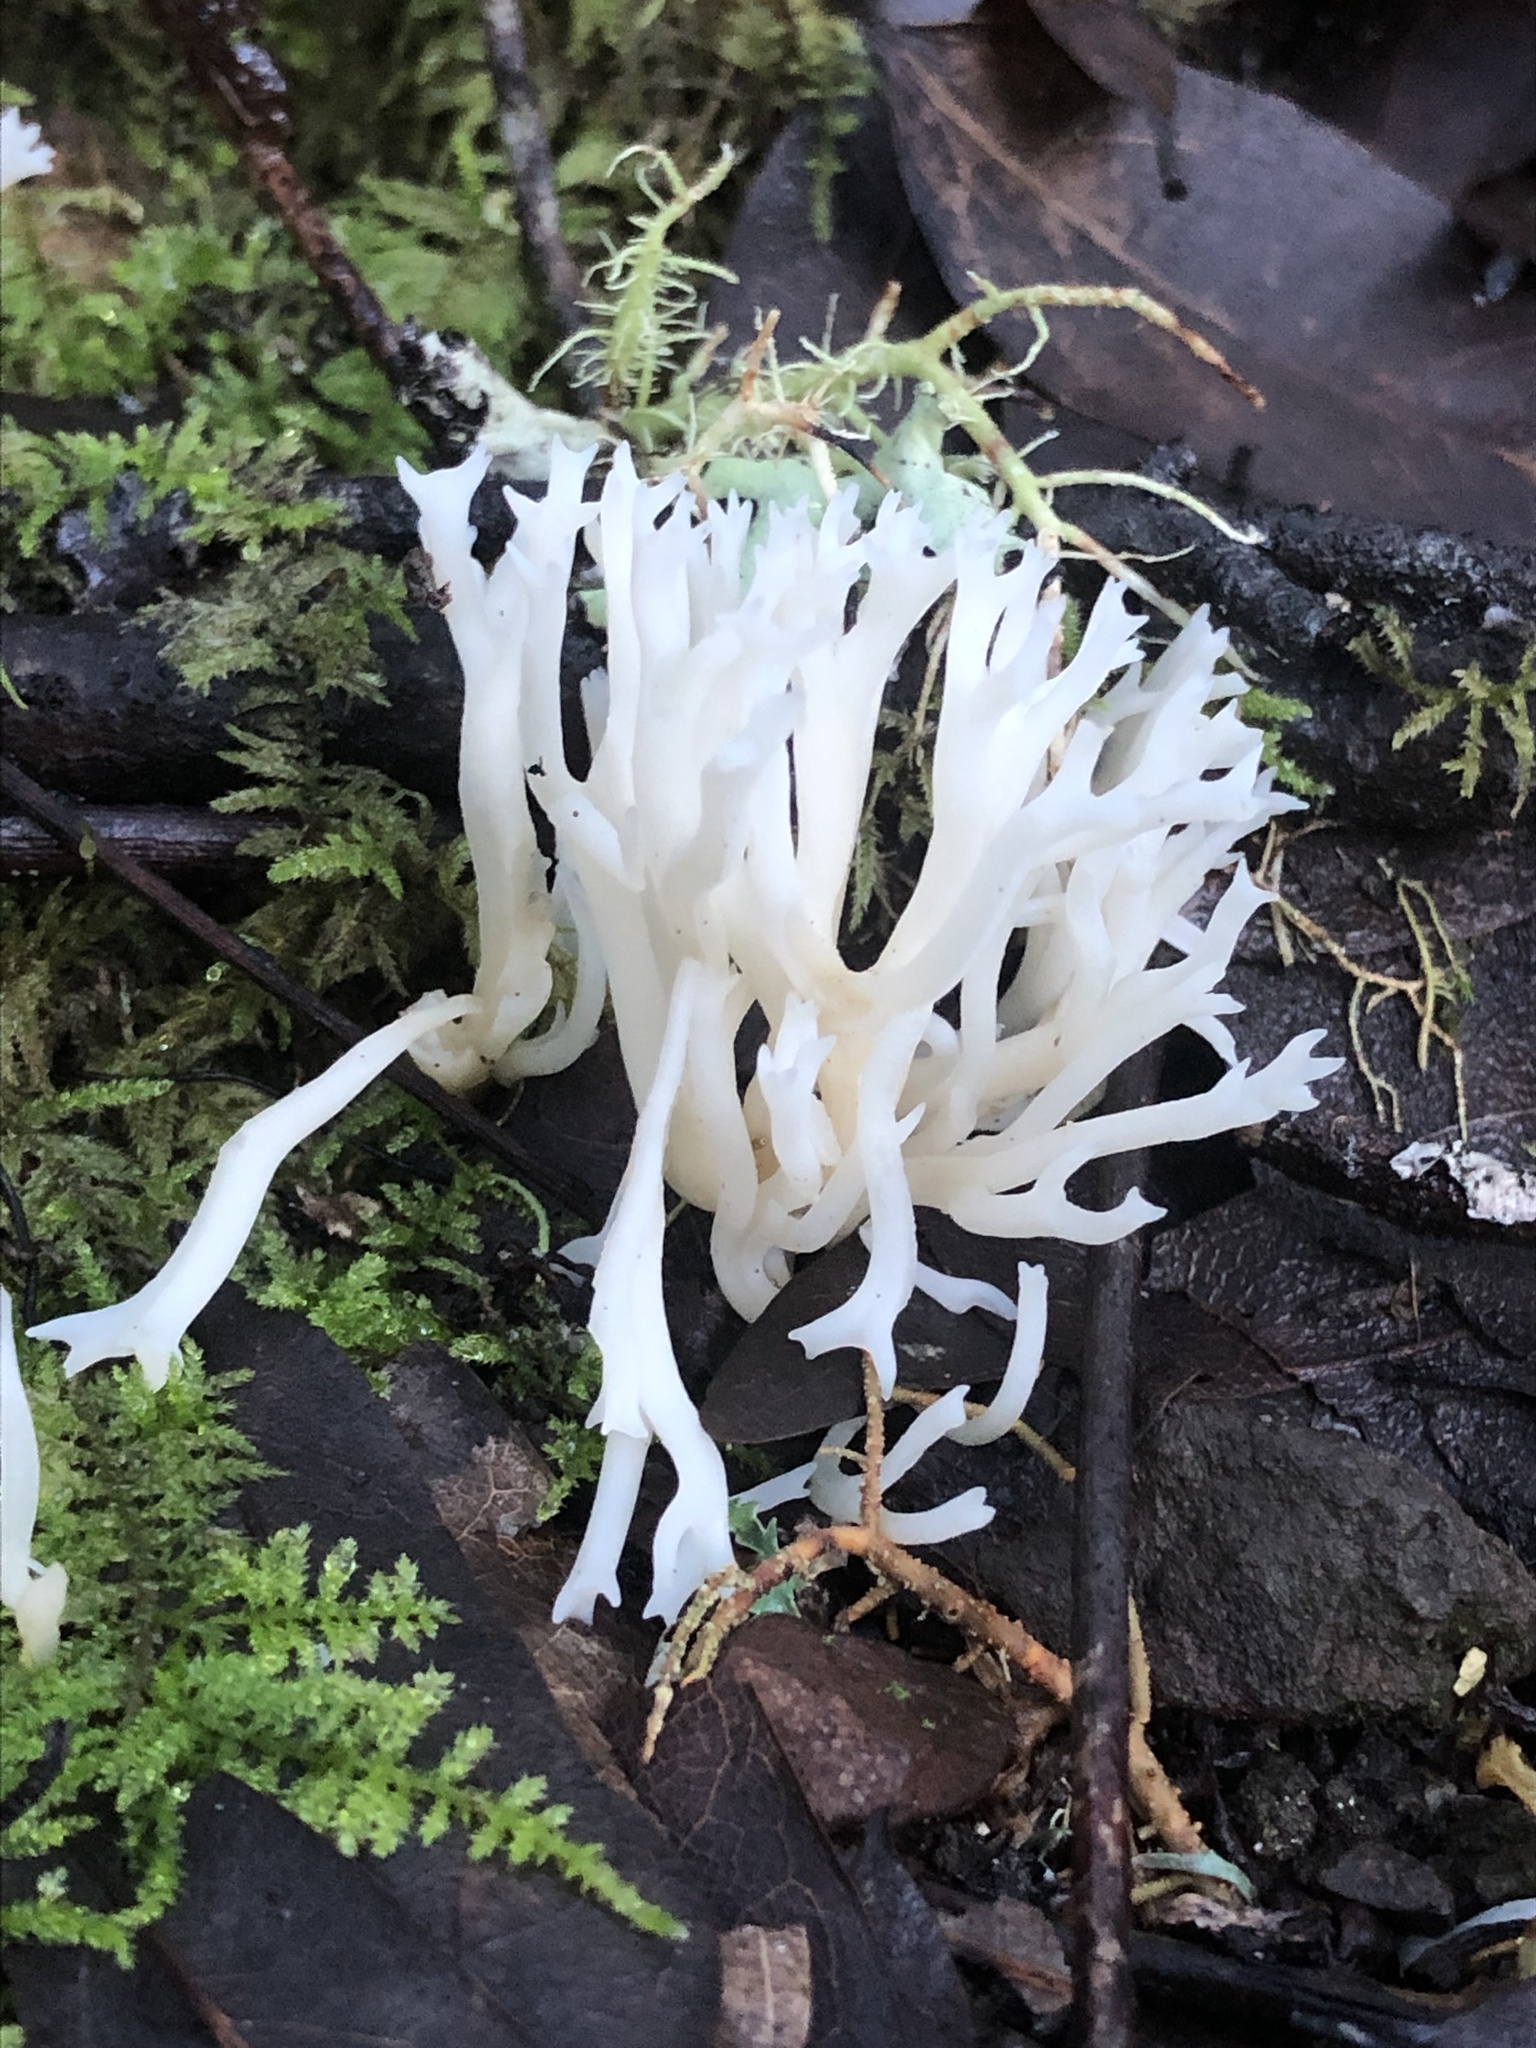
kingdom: Fungi
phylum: Basidiomycota
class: Agaricomycetes
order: Agaricales
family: Clavariaceae
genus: Ramariopsis
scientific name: Ramariopsis kunzei
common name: Ivory coral
